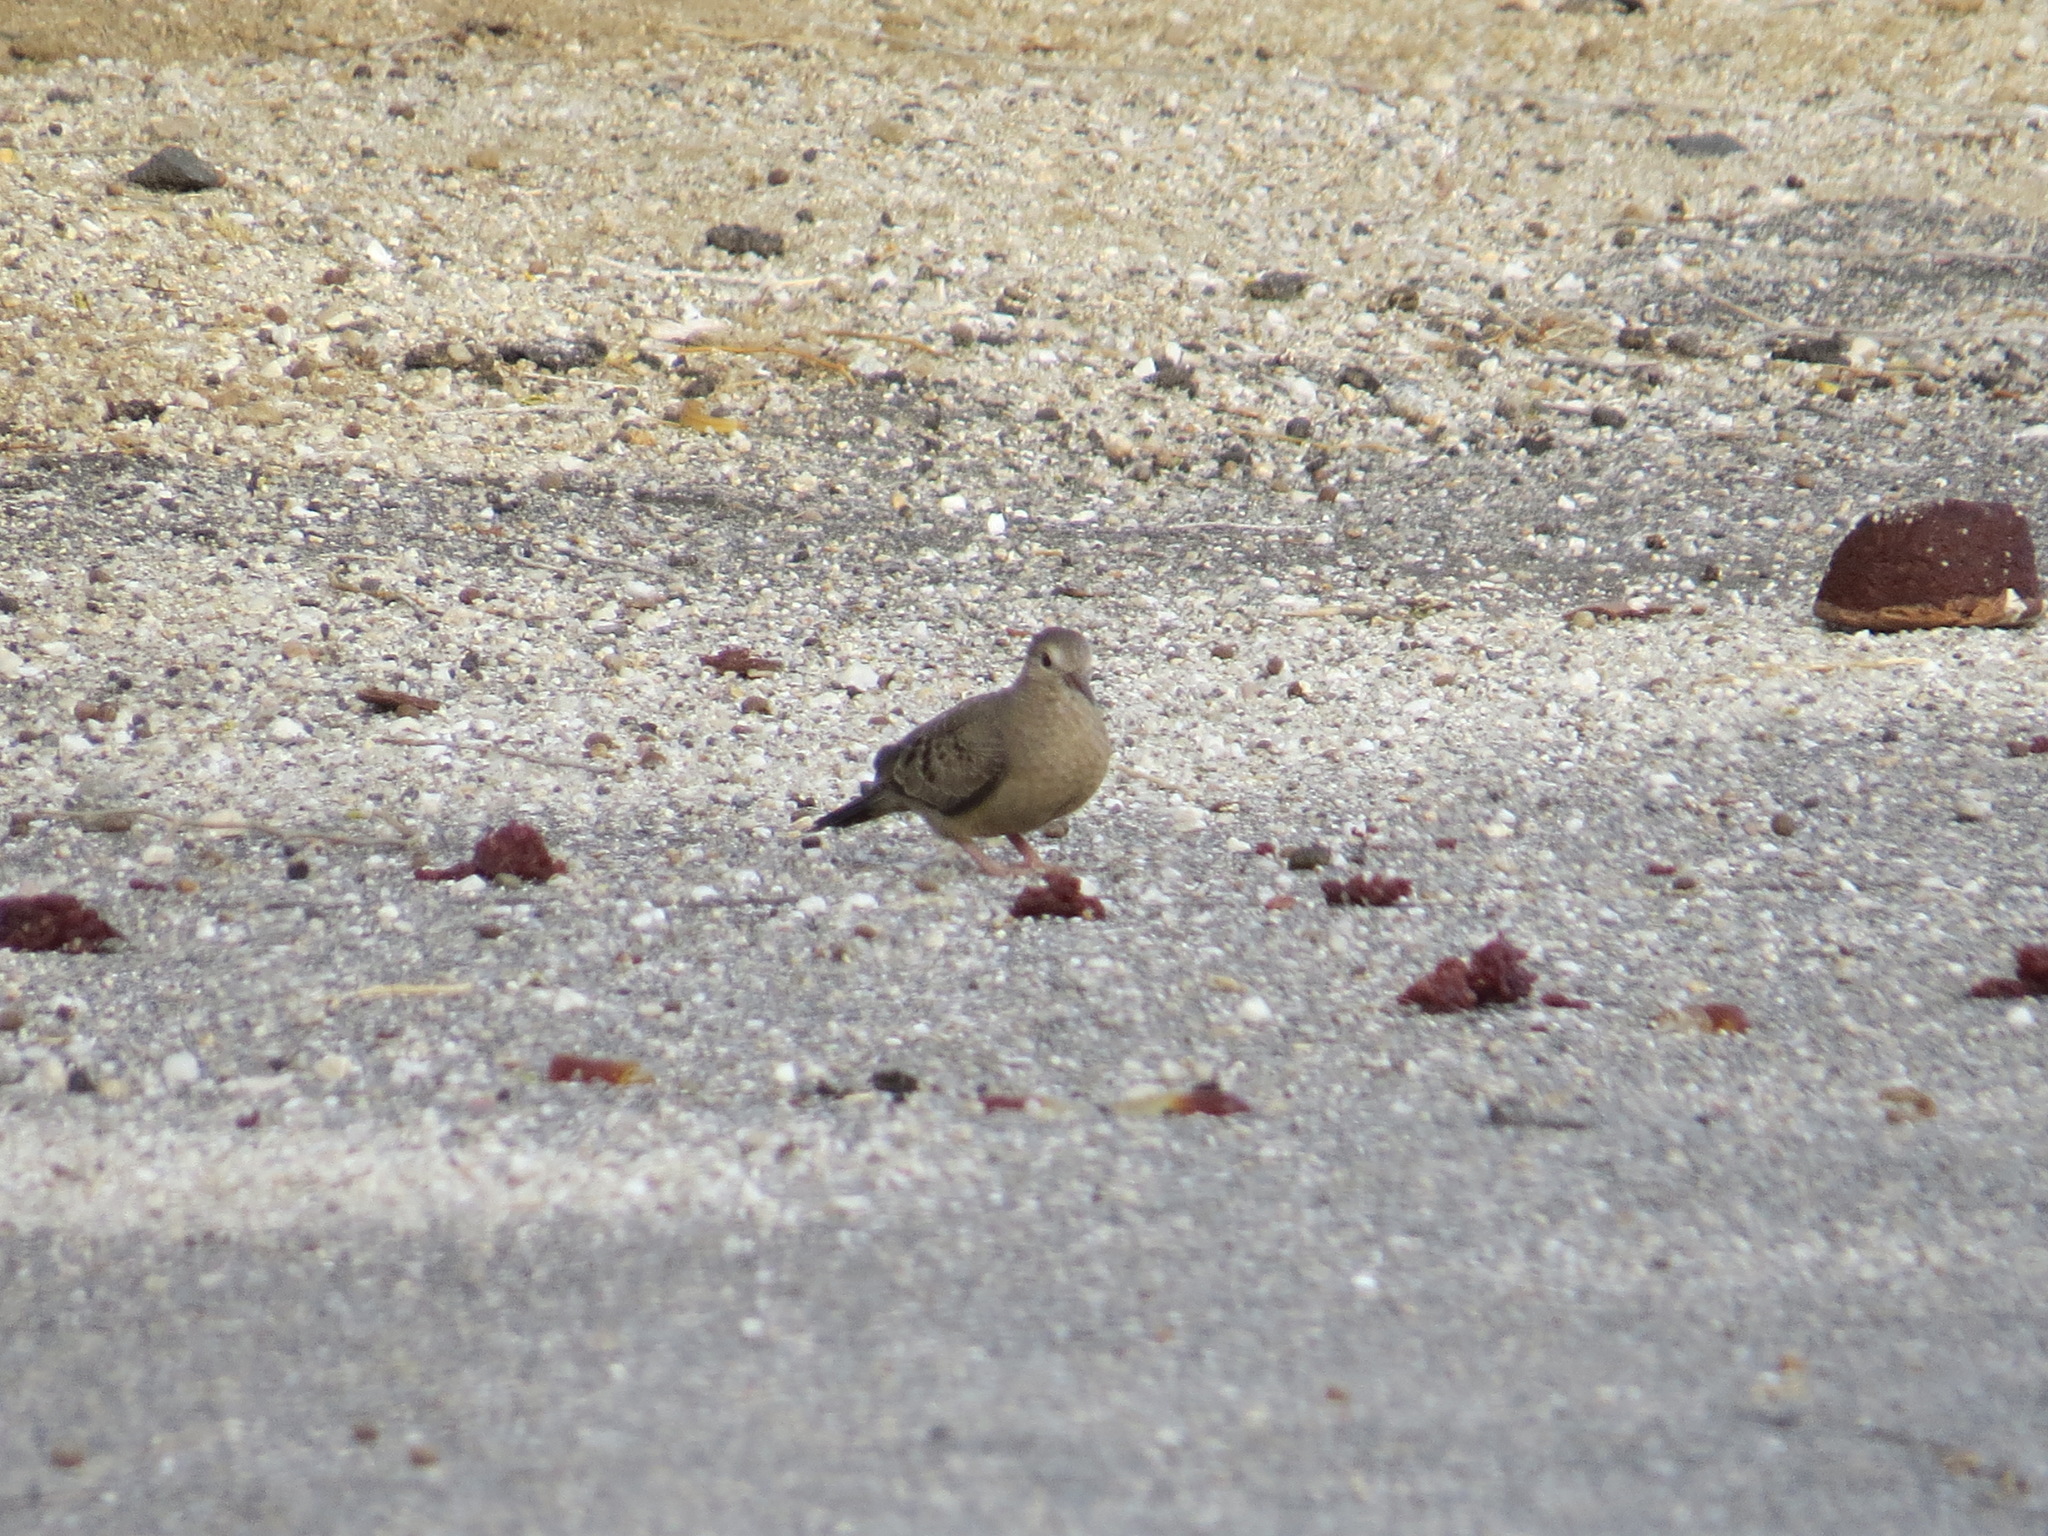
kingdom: Animalia
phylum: Chordata
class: Aves
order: Columbiformes
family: Columbidae
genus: Columbina
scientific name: Columbina passerina
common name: Common ground-dove
